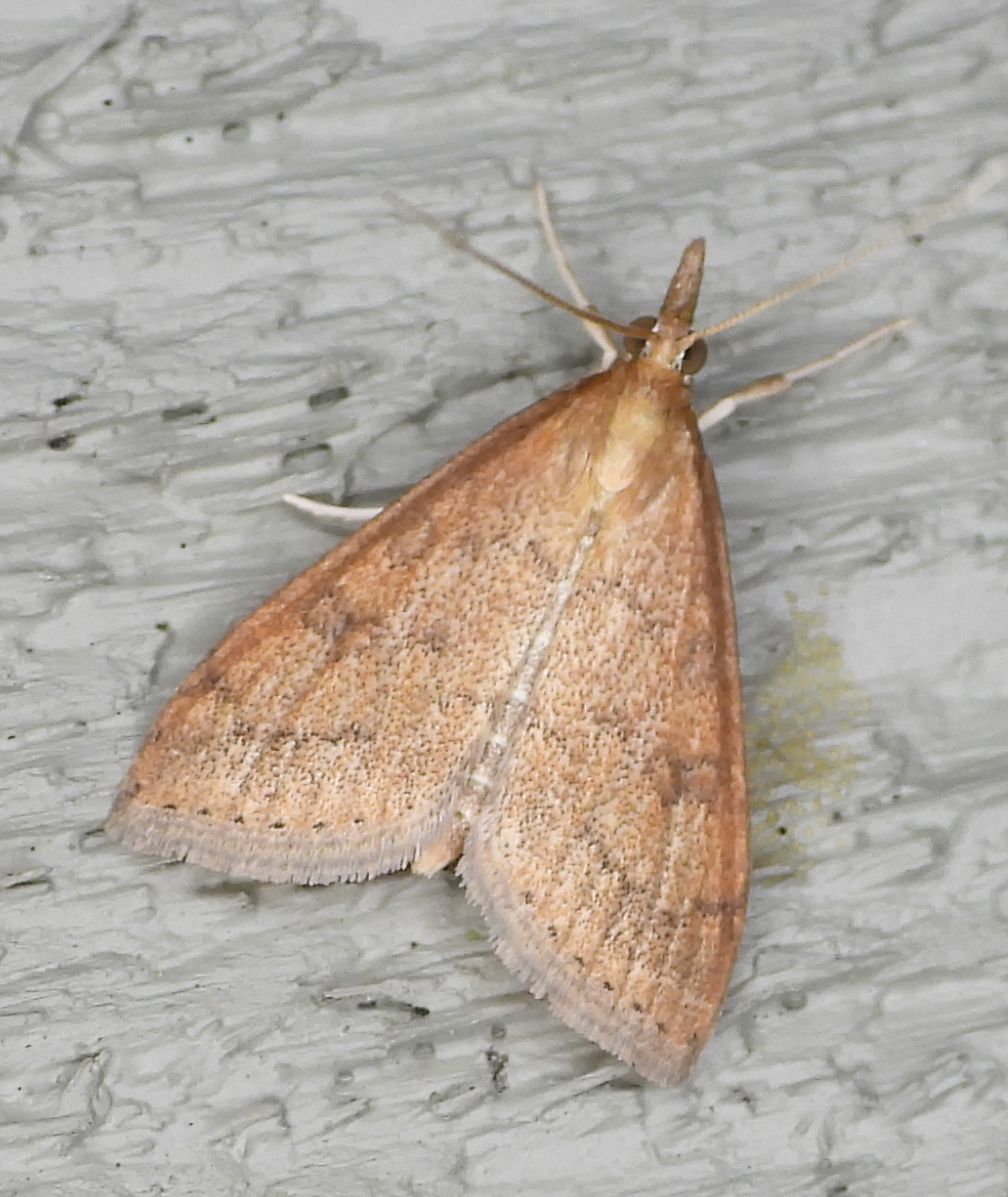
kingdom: Animalia
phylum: Arthropoda
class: Insecta
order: Lepidoptera
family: Crambidae
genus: Udea
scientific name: Udea rubigalis
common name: Celery leaftier moth
